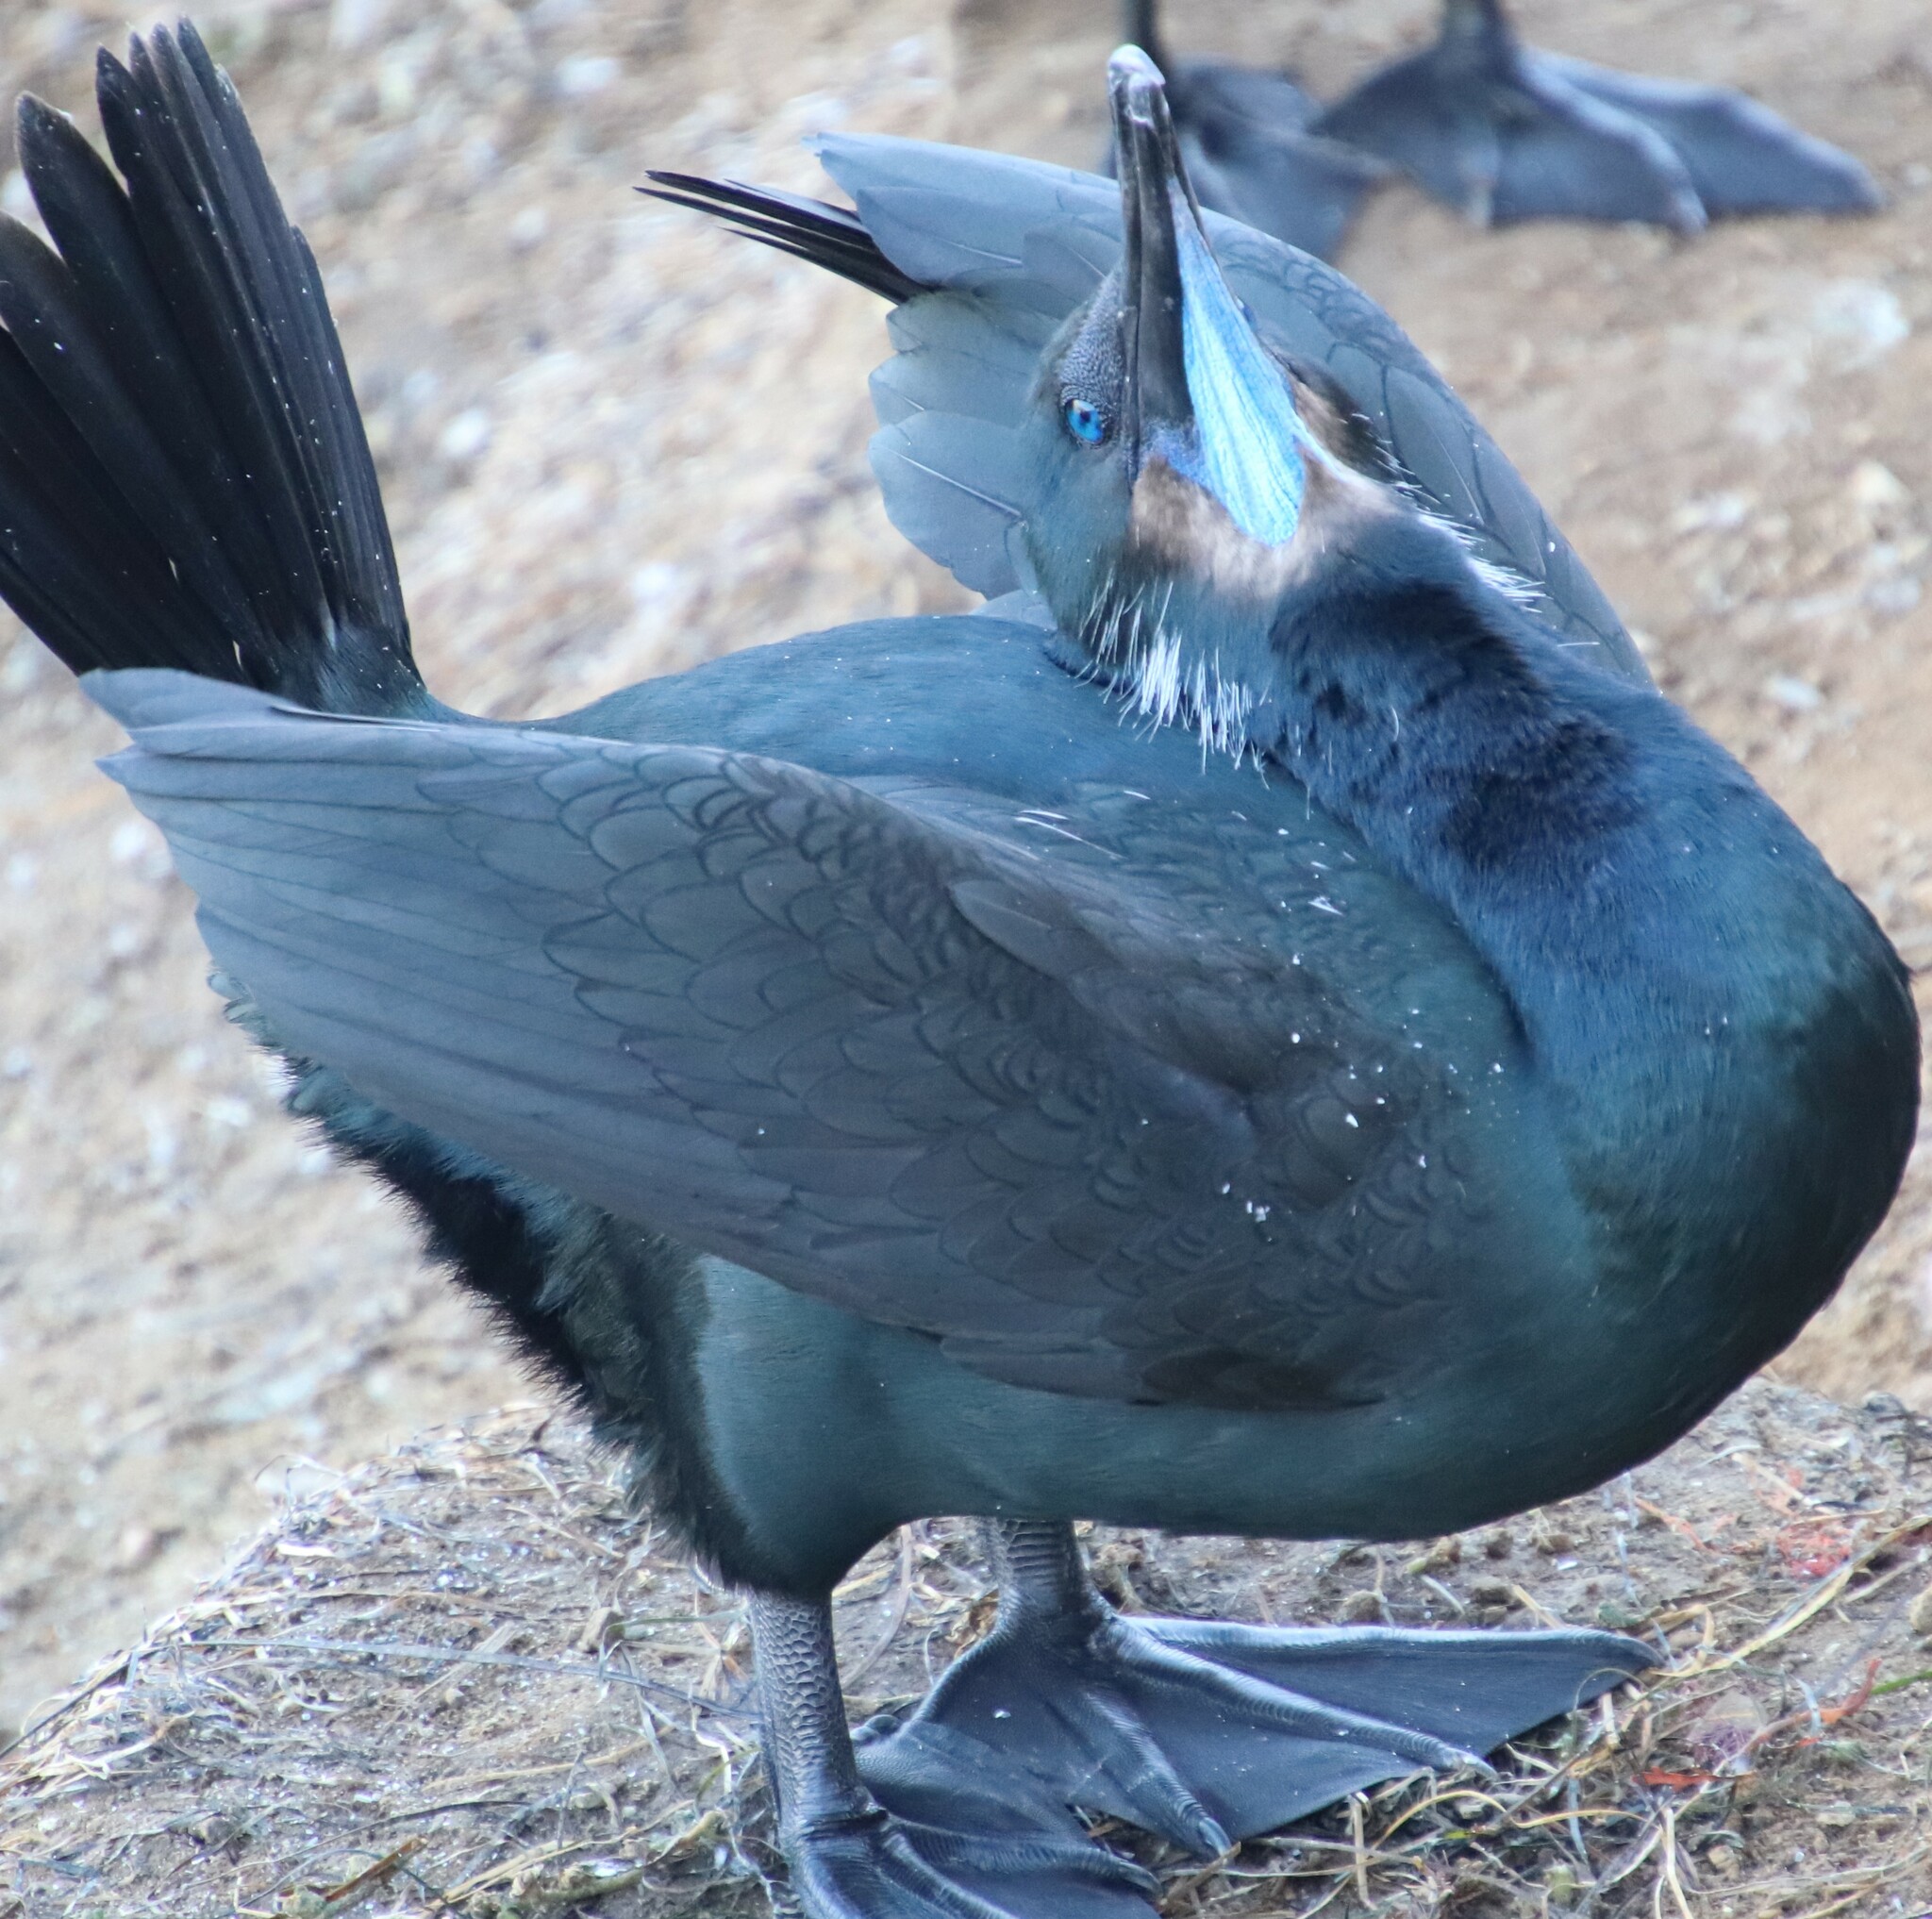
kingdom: Animalia
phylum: Chordata
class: Aves
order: Suliformes
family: Phalacrocoracidae
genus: Urile
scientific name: Urile penicillatus
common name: Brandt's cormorant
